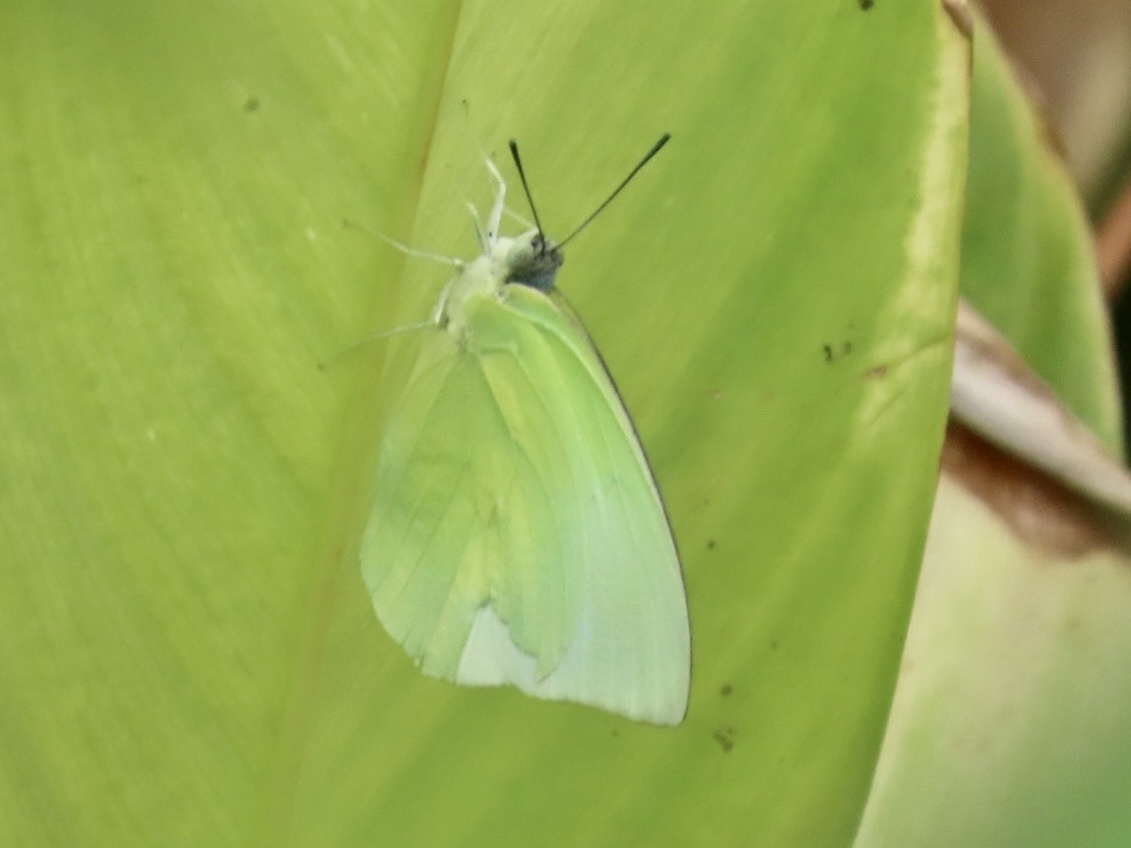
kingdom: Animalia
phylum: Arthropoda
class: Insecta
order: Lepidoptera
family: Pieridae
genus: Catopsilia
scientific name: Catopsilia pomona
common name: Common emigrant
